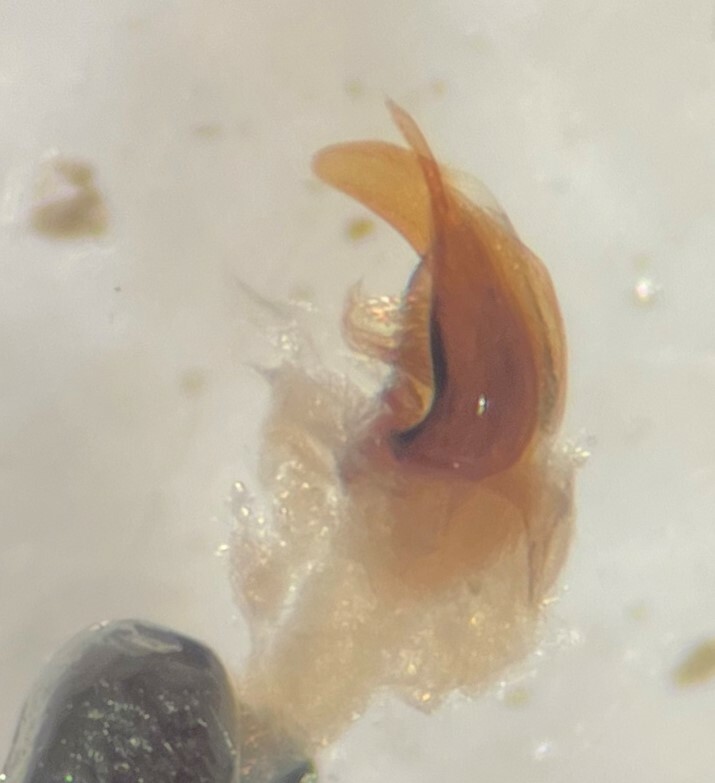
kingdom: Animalia
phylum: Arthropoda
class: Insecta
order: Coleoptera
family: Haliplidae
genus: Haliplus
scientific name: Haliplus lewsii
